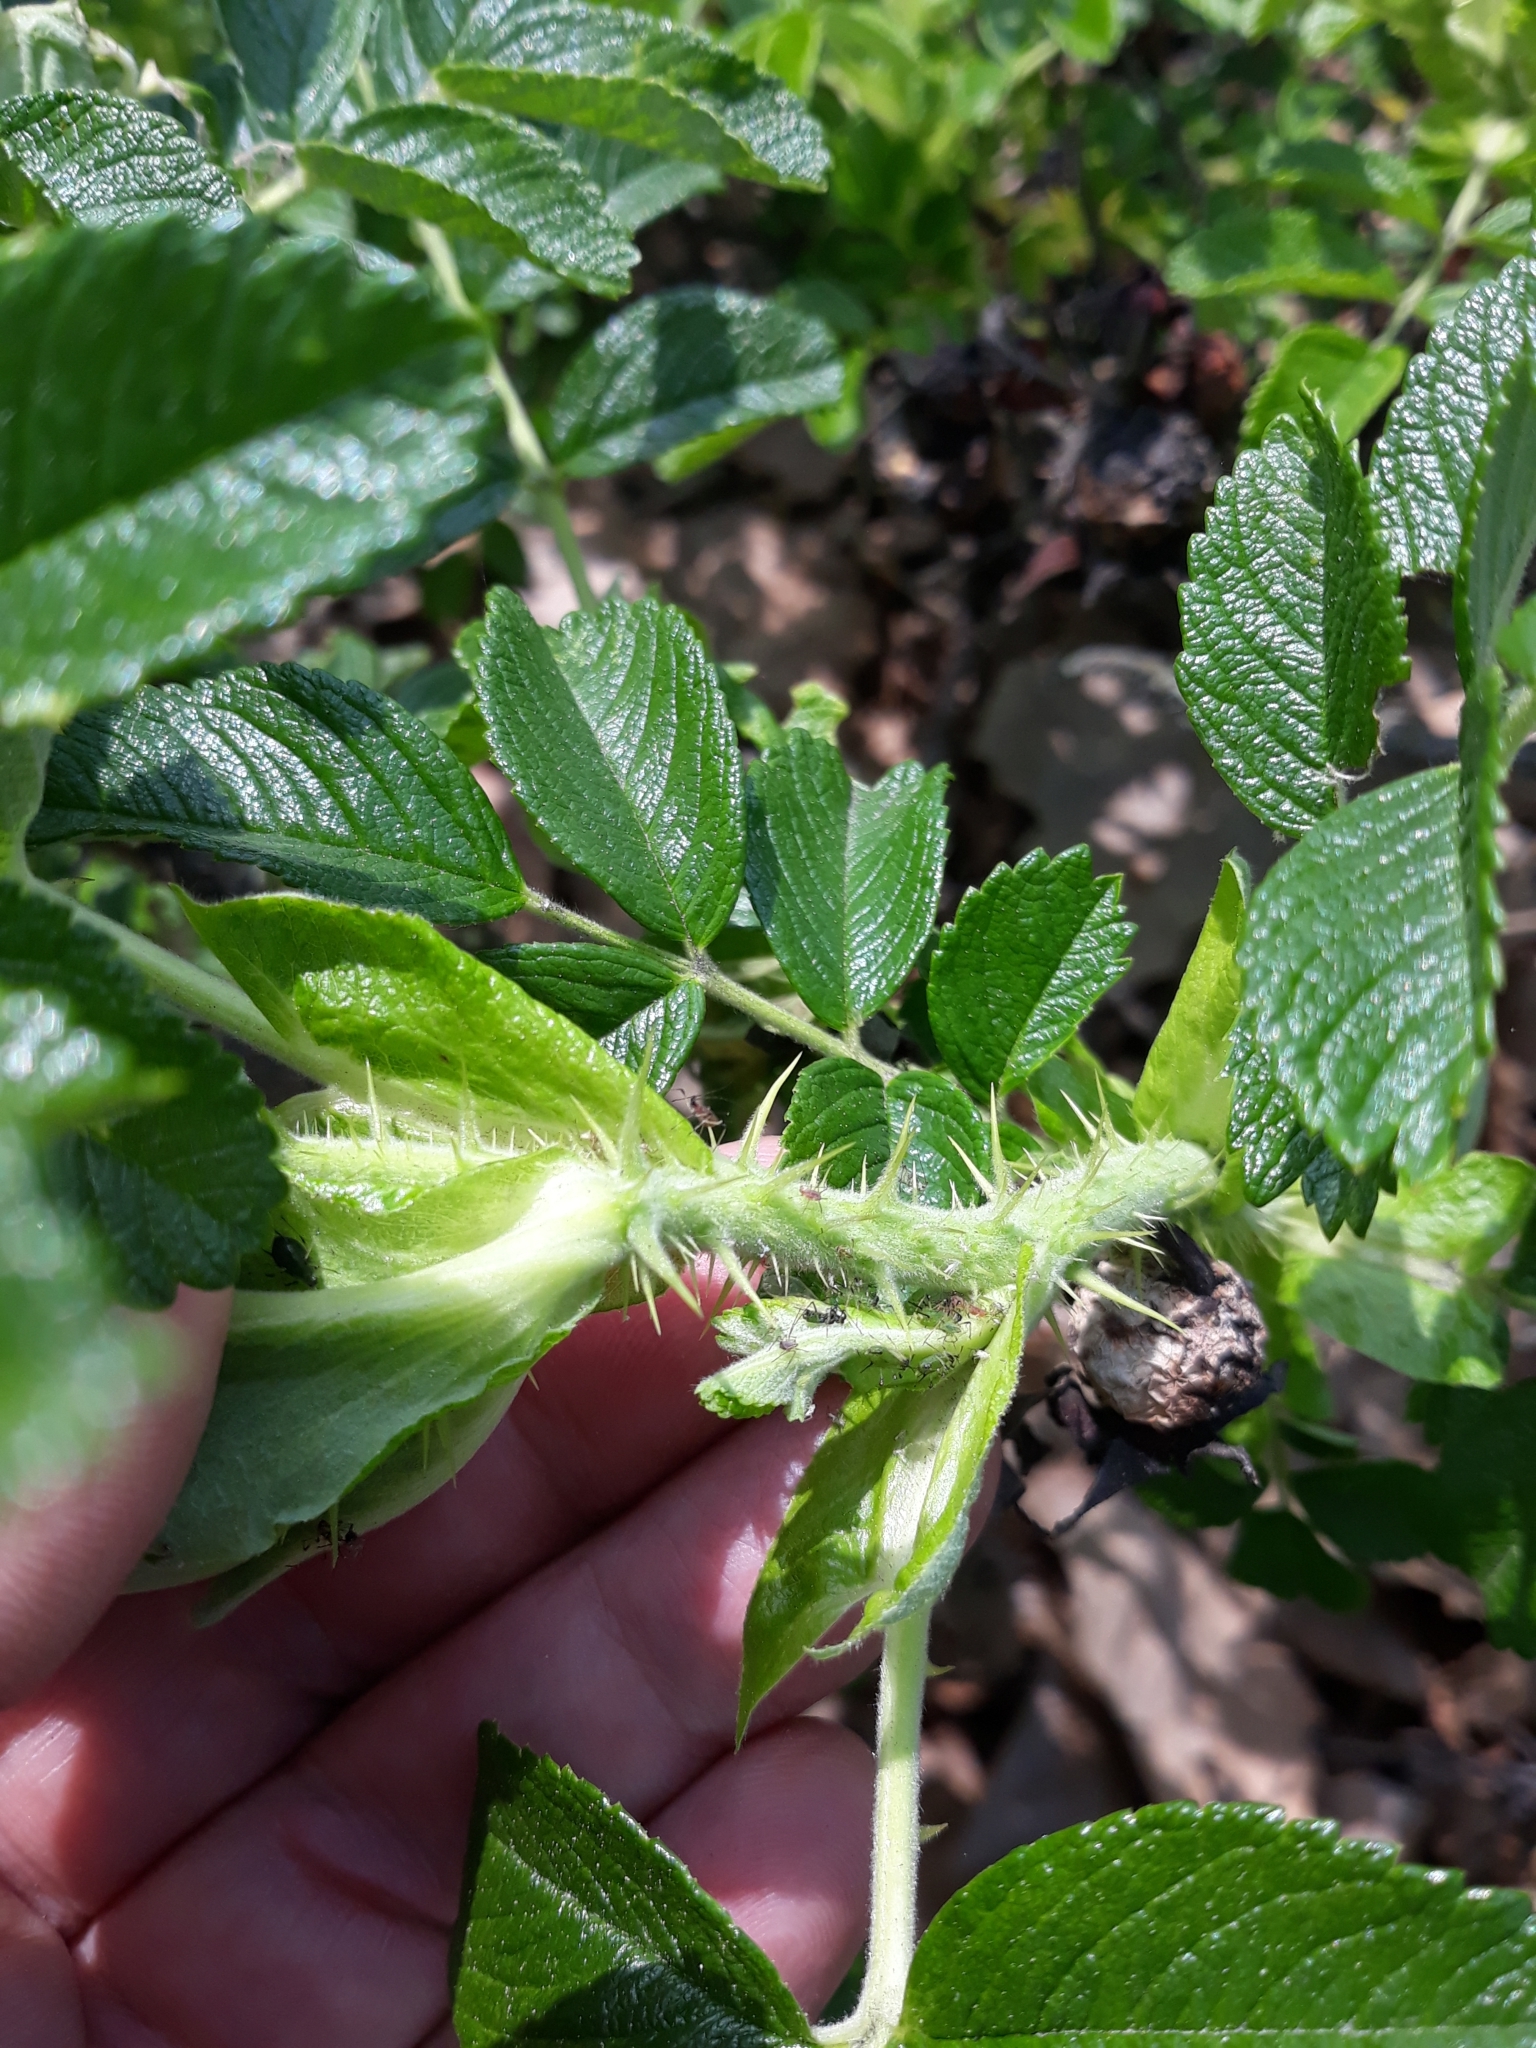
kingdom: Plantae
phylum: Tracheophyta
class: Magnoliopsida
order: Rosales
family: Rosaceae
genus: Rosa
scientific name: Rosa rugosa
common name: Japanese rose
